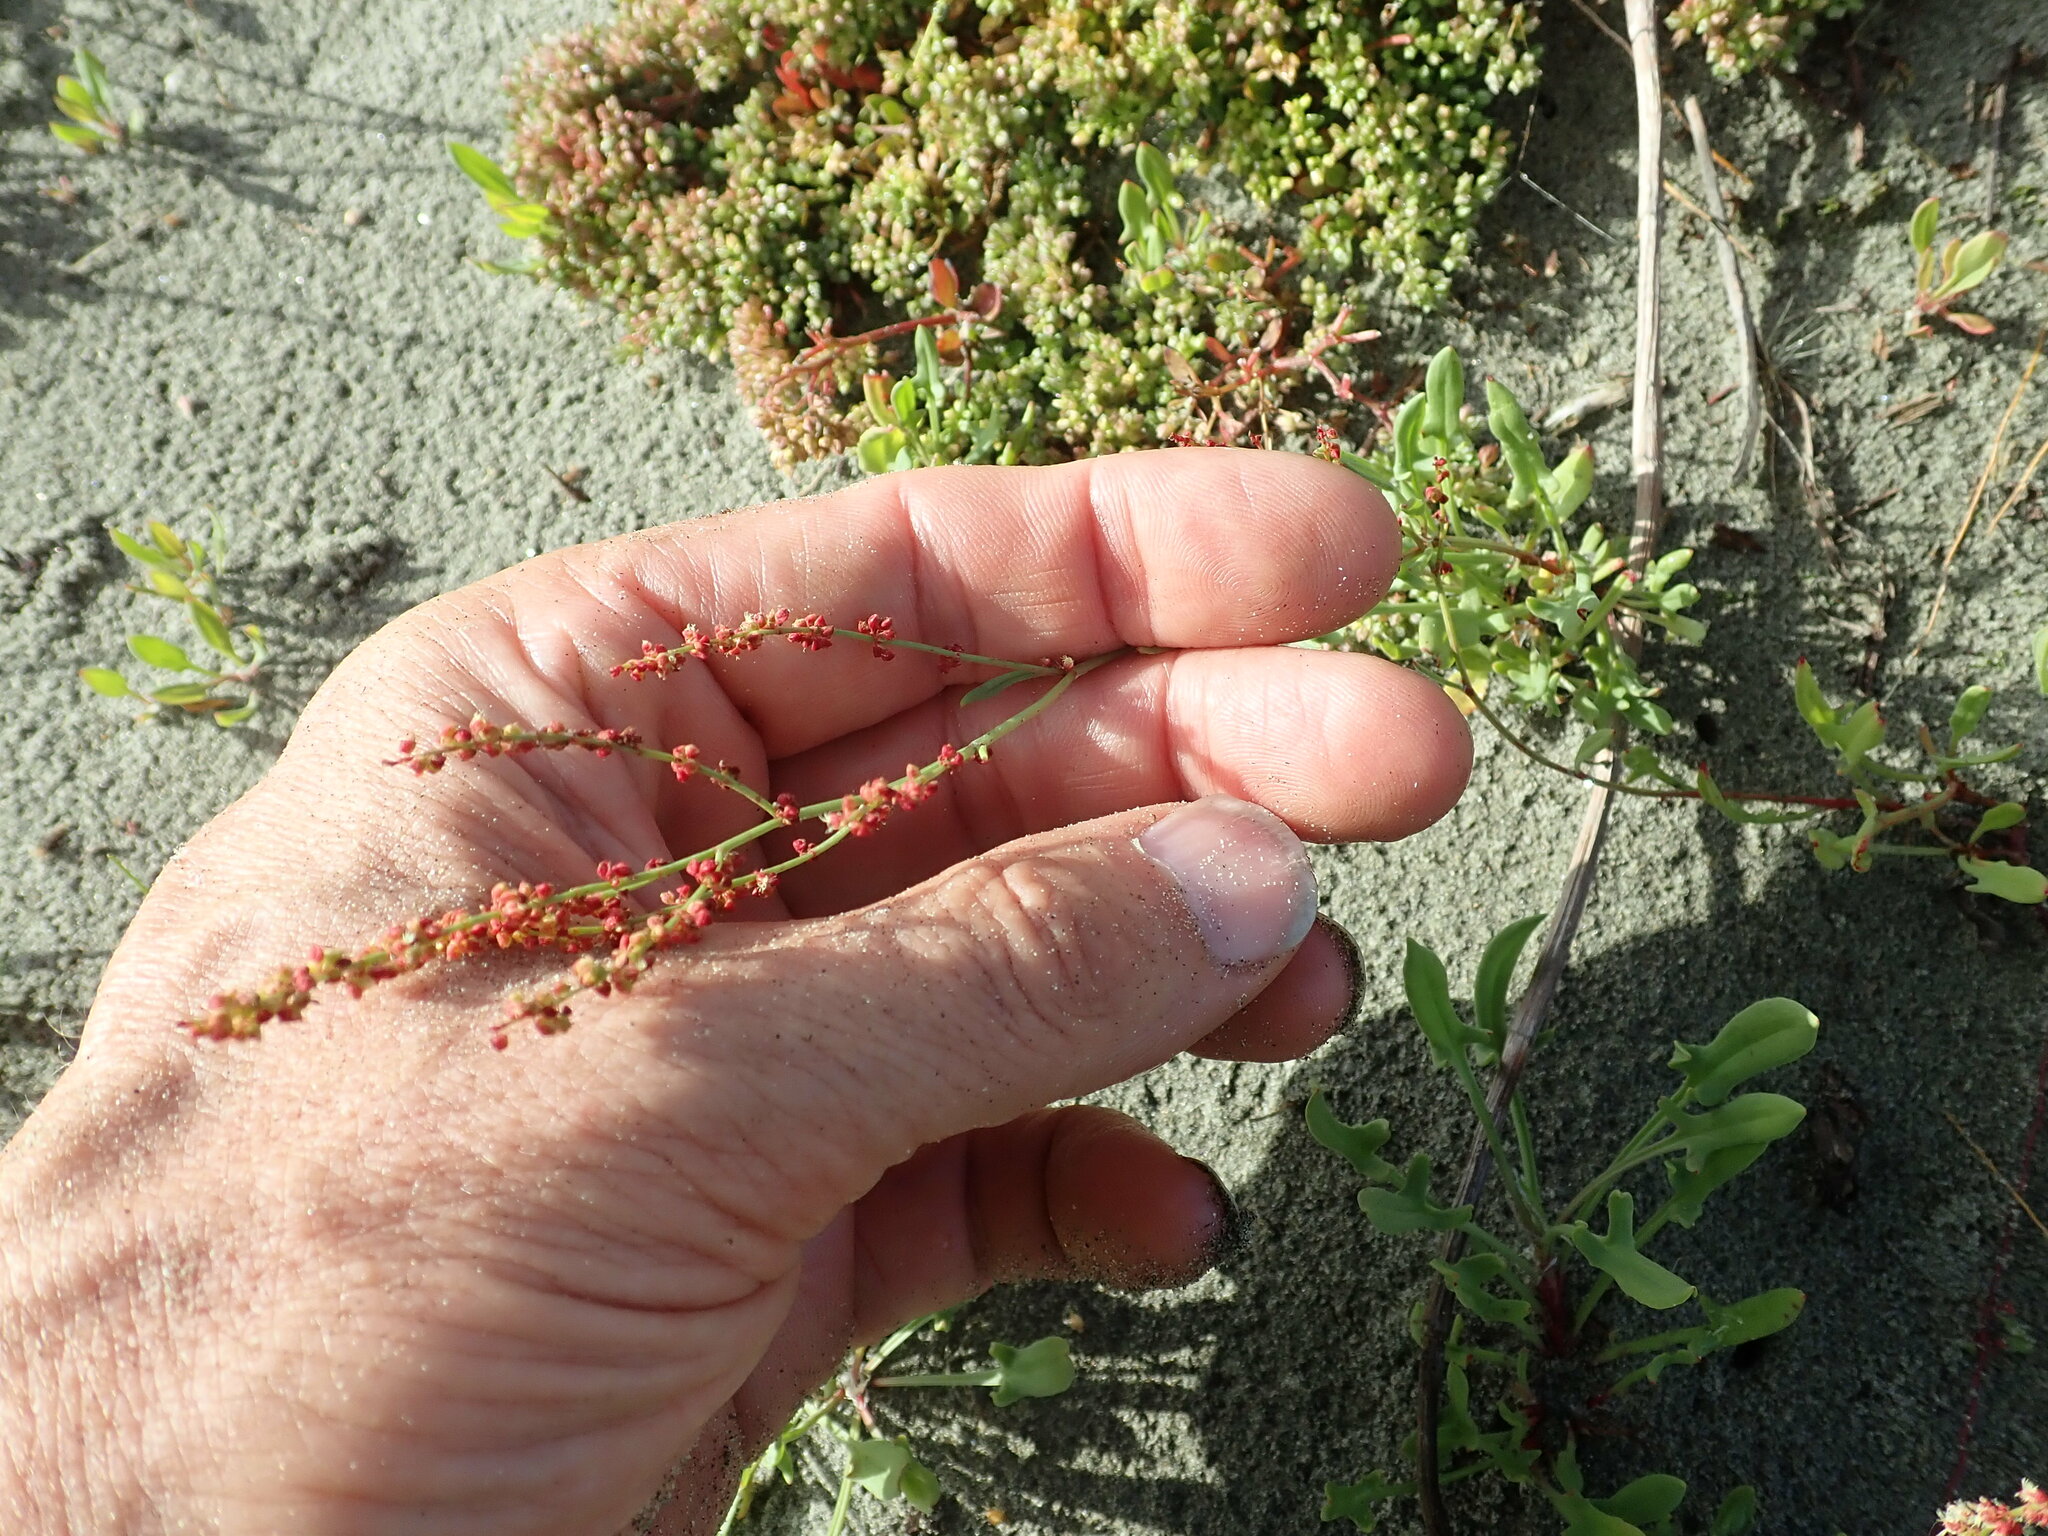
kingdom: Plantae
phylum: Tracheophyta
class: Magnoliopsida
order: Caryophyllales
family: Polygonaceae
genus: Rumex
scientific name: Rumex acetosella
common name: Common sheep sorrel
